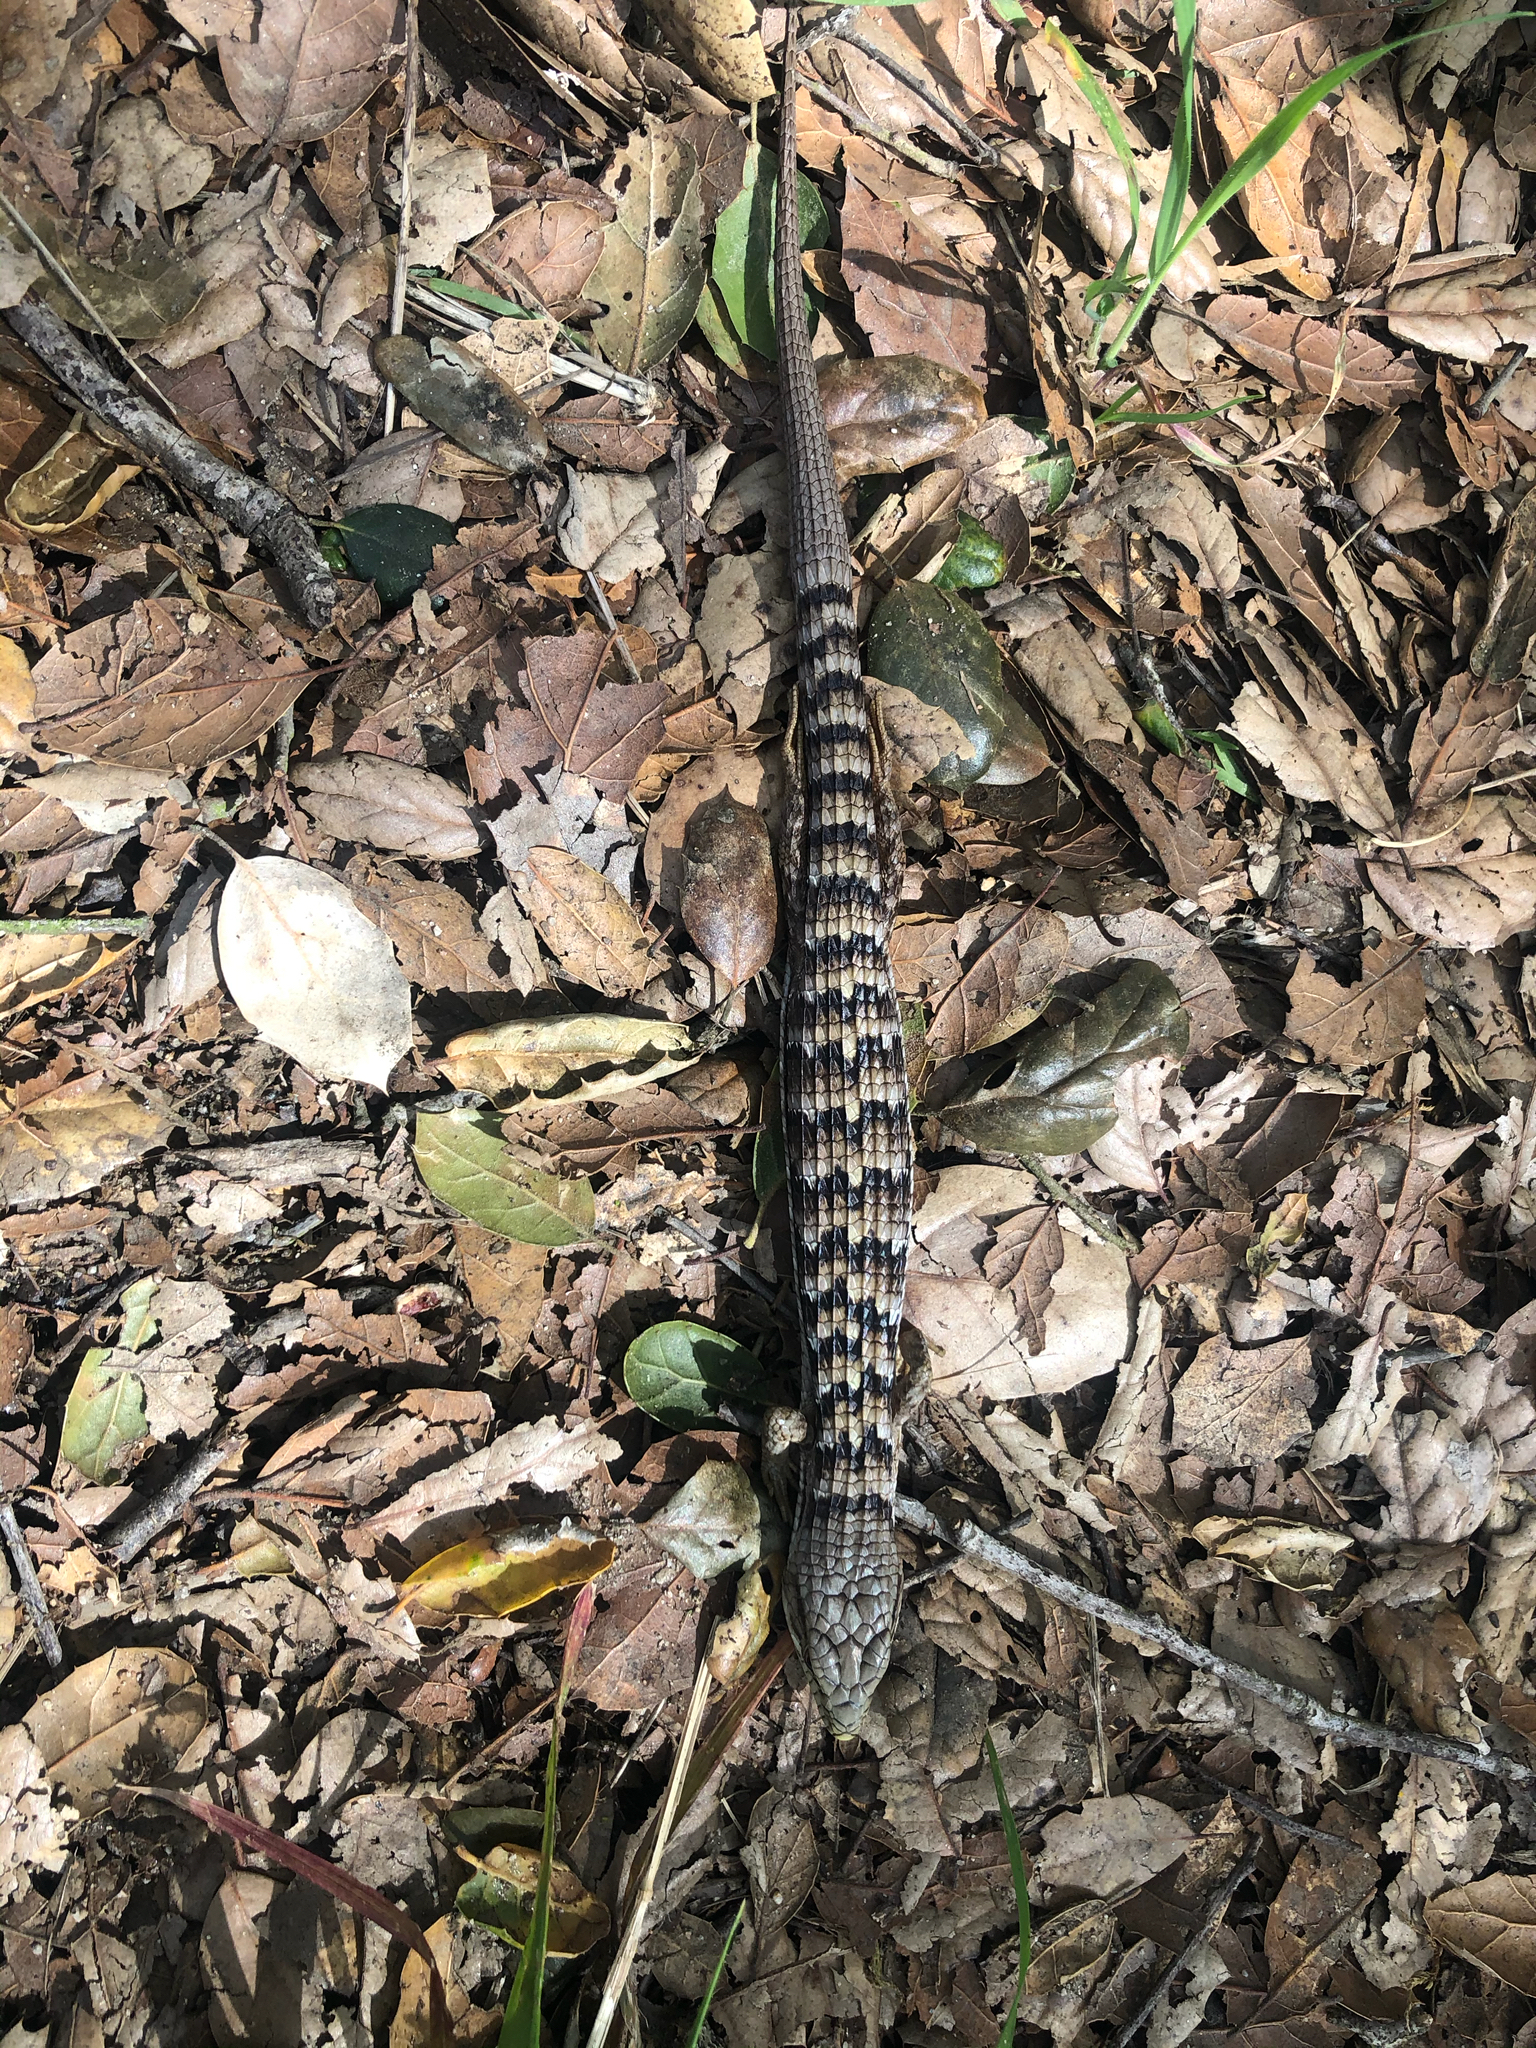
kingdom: Animalia
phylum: Chordata
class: Squamata
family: Anguidae
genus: Elgaria
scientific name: Elgaria multicarinata
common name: Southern alligator lizard
